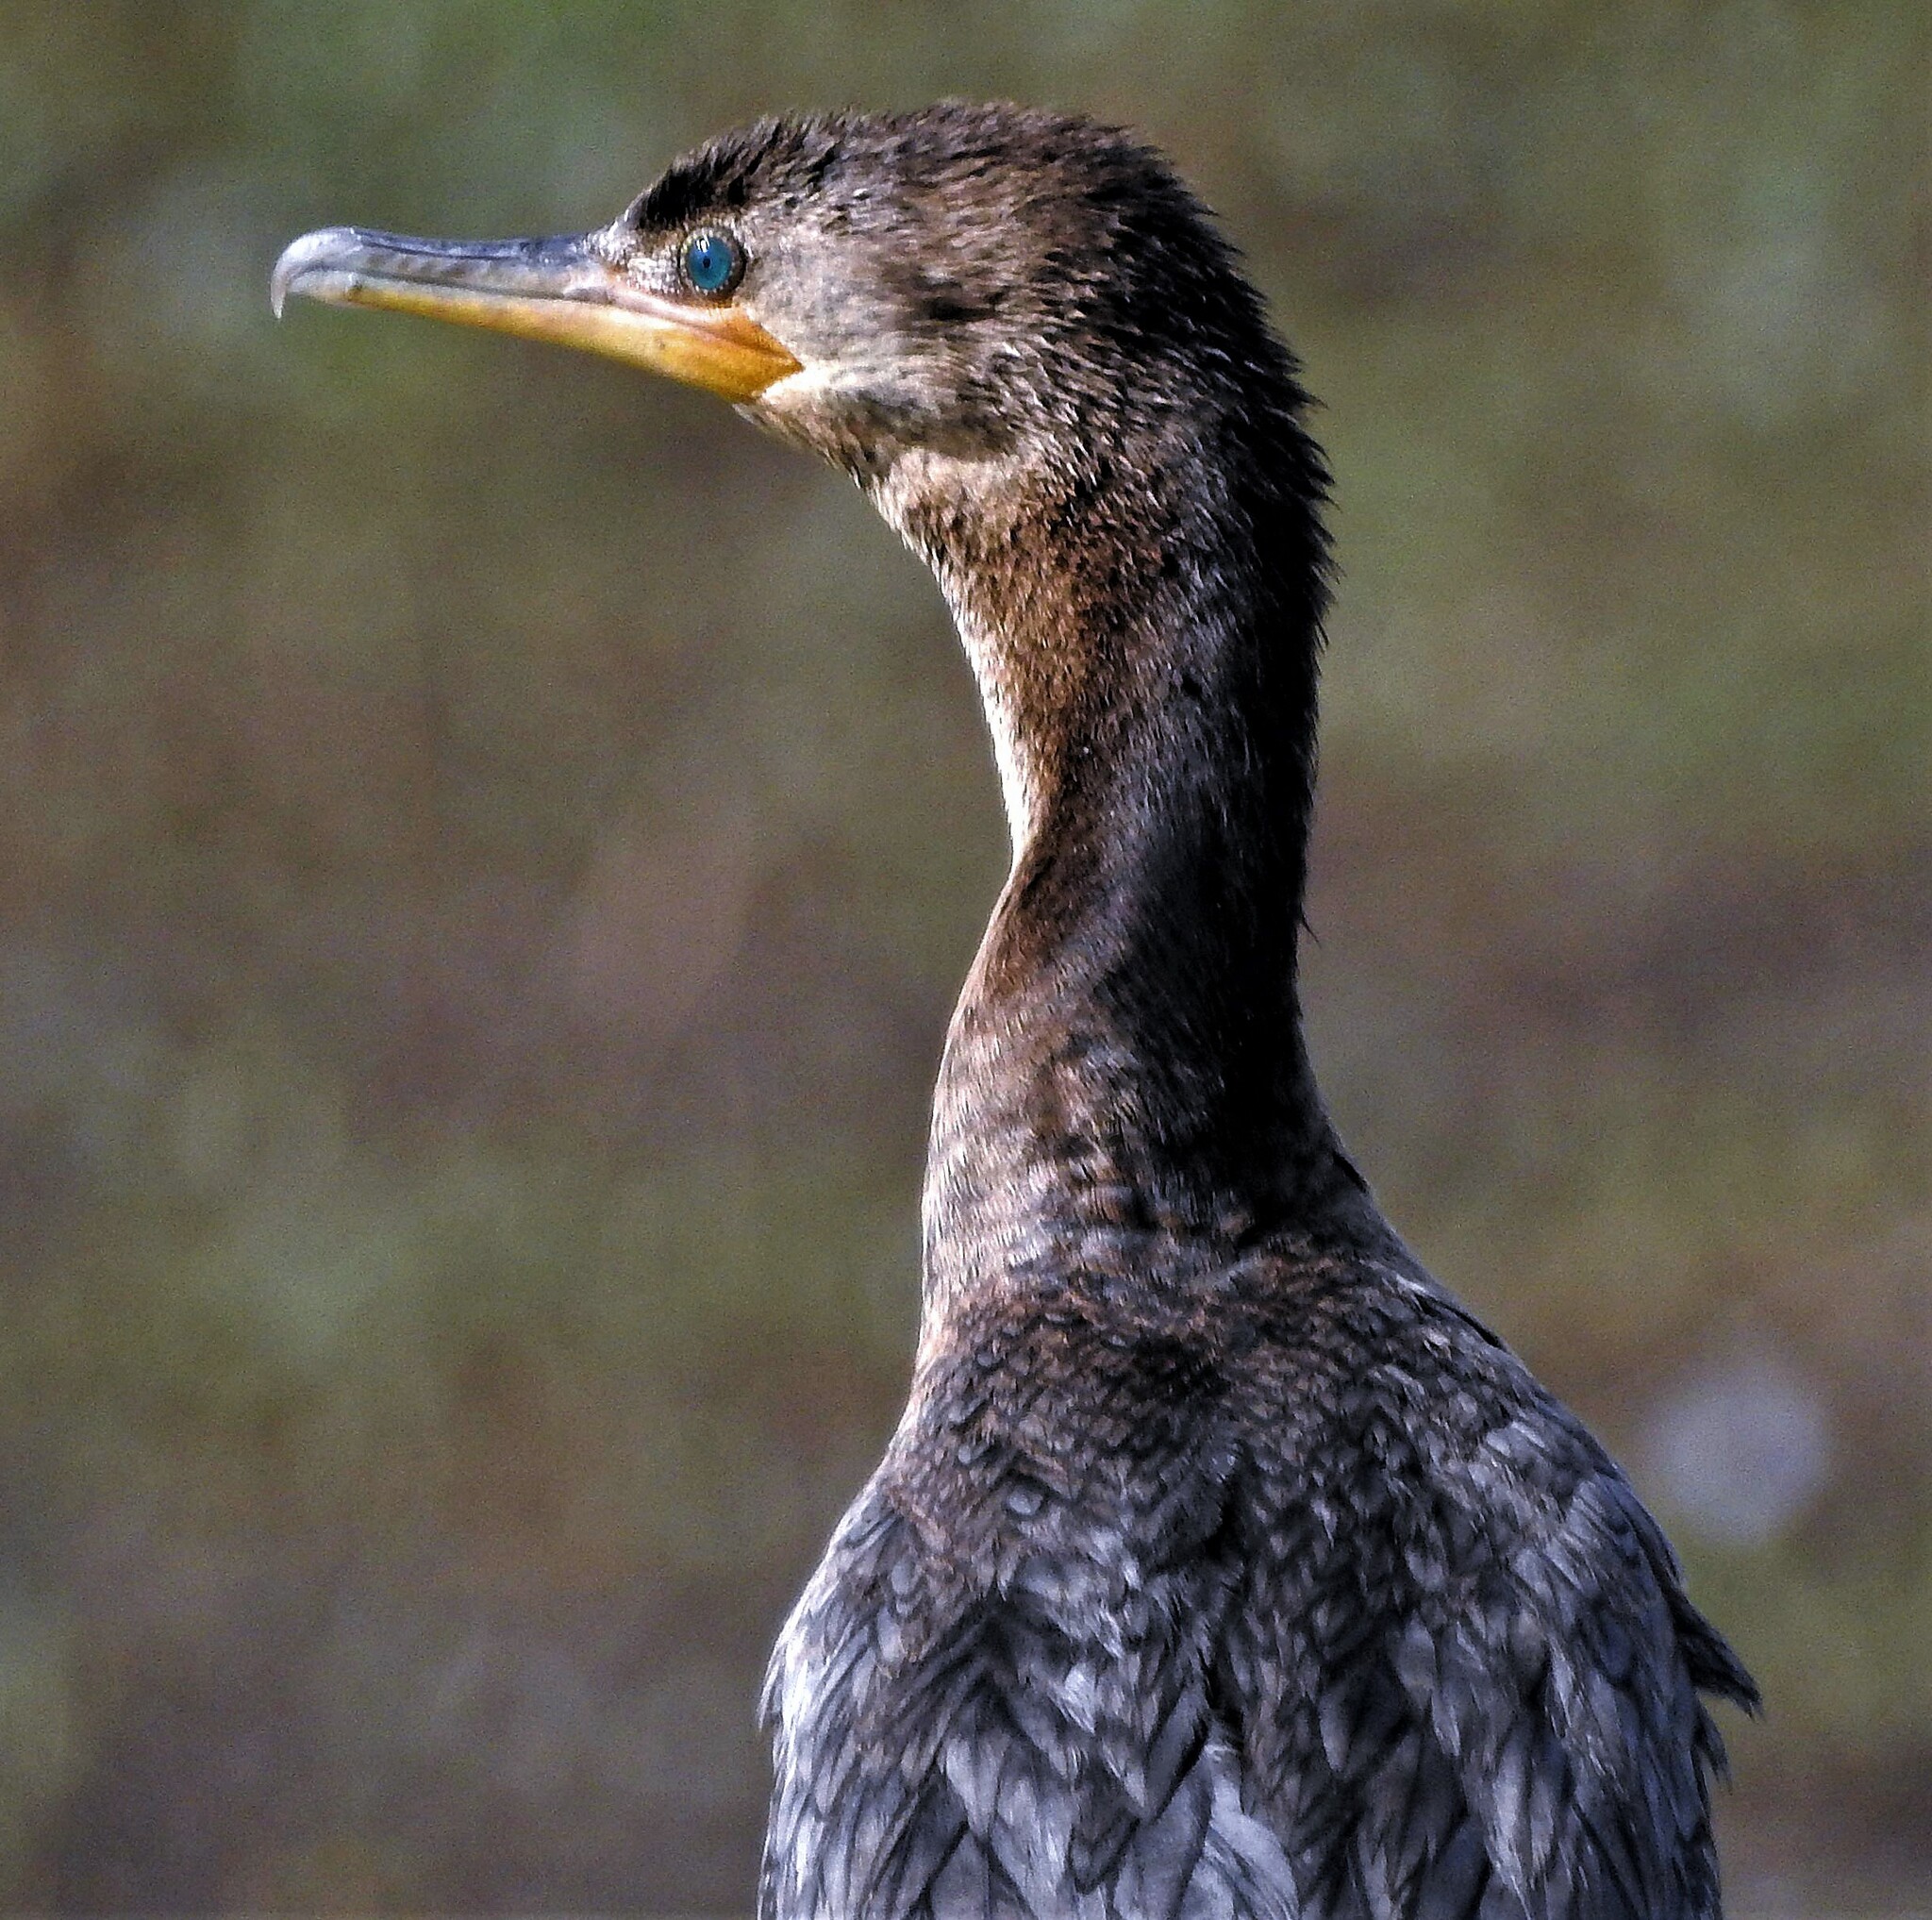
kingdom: Animalia
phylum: Chordata
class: Aves
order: Suliformes
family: Phalacrocoracidae
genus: Phalacrocorax
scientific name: Phalacrocorax brasilianus
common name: Neotropic cormorant
